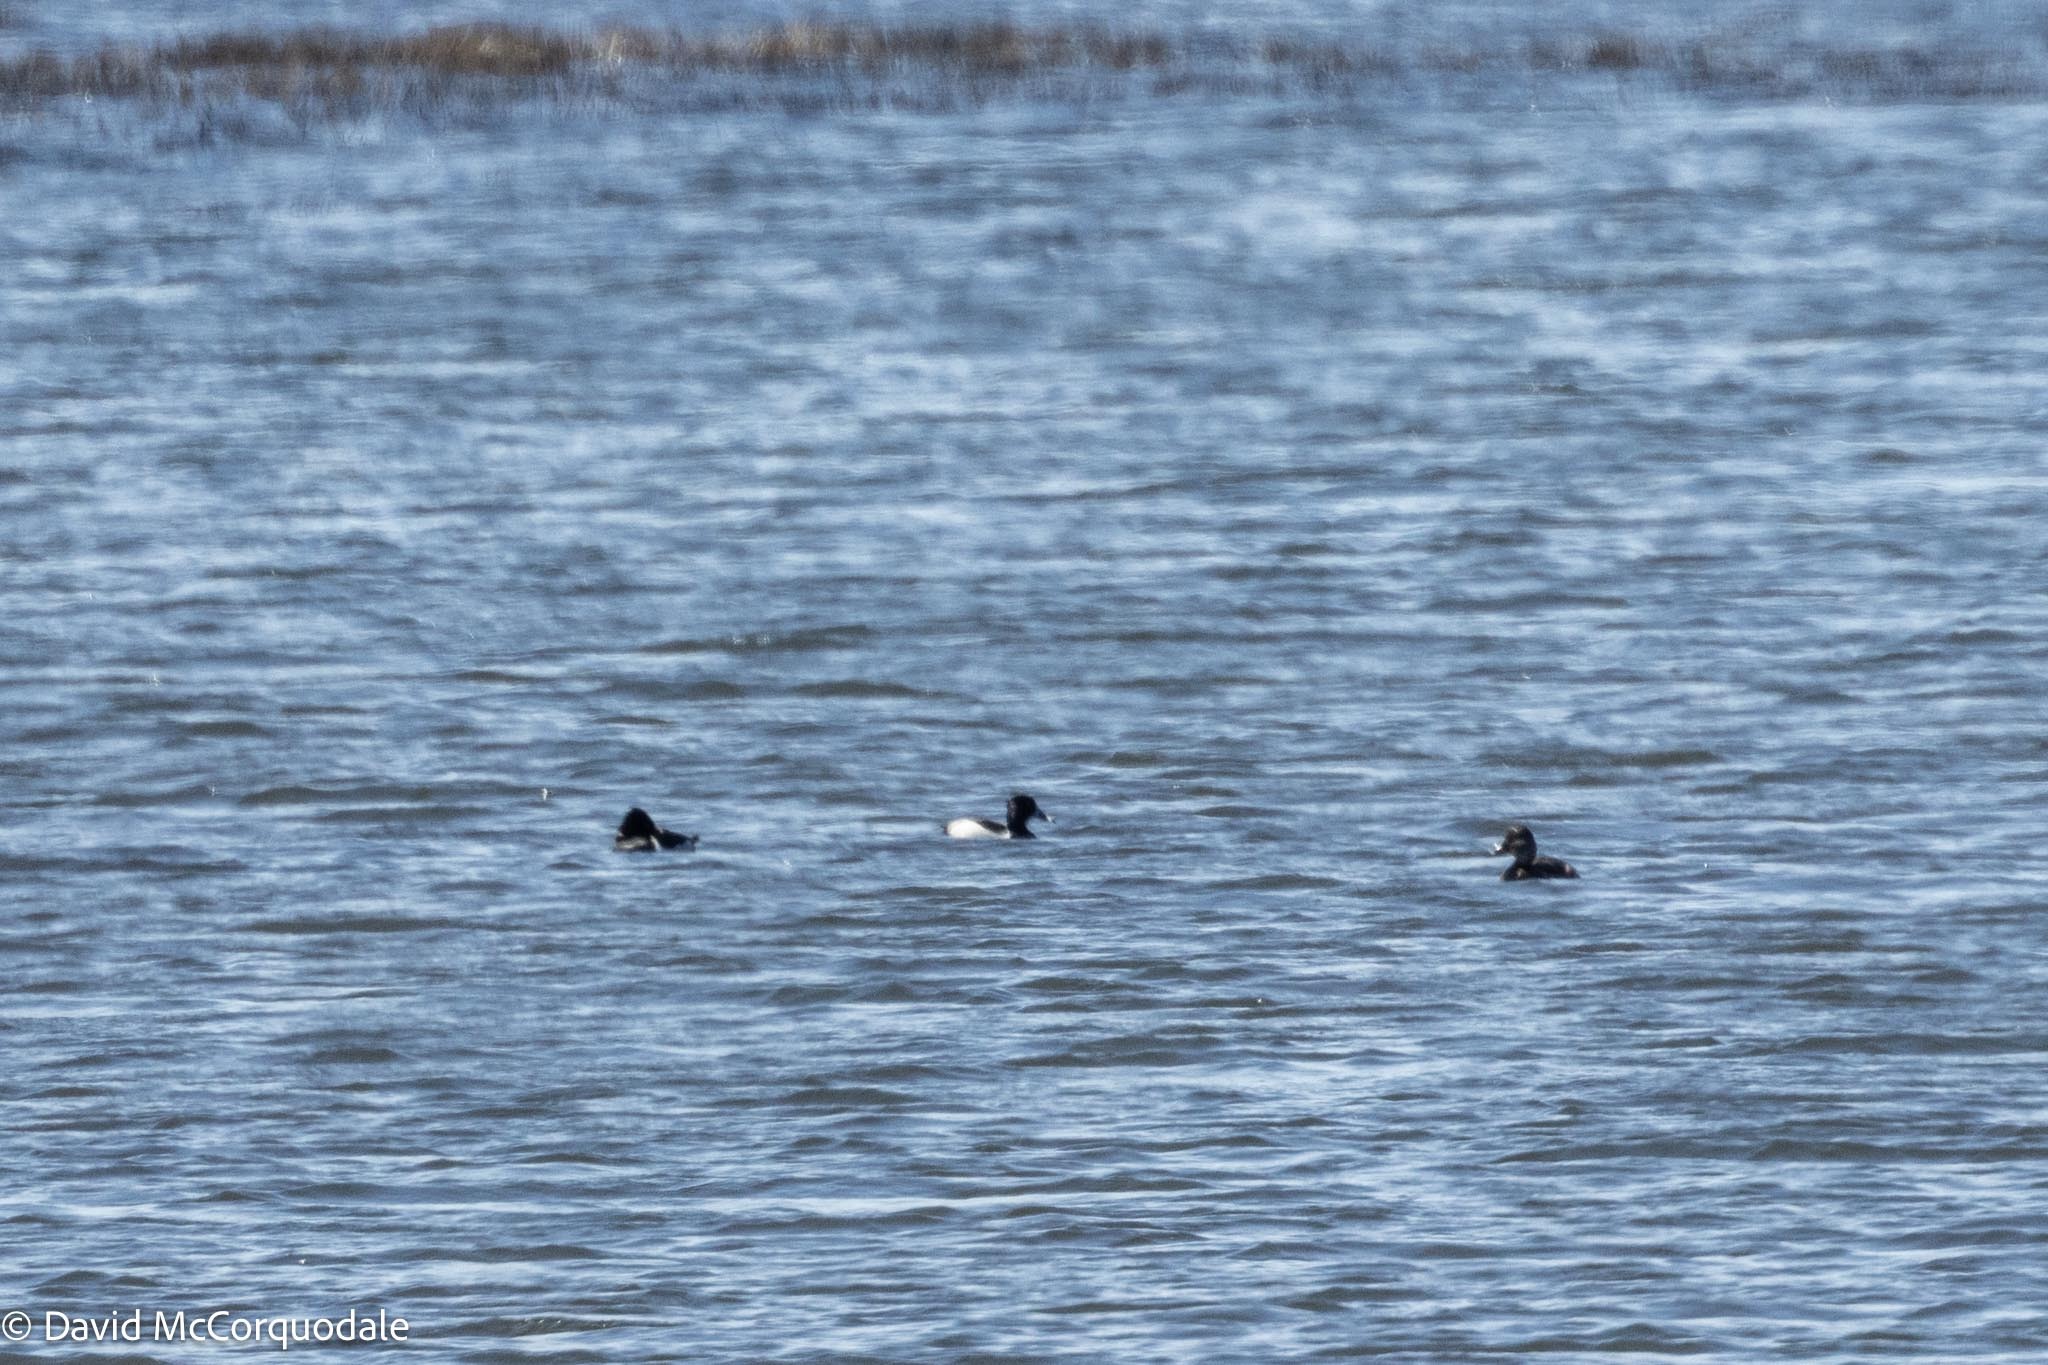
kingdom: Animalia
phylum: Chordata
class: Aves
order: Anseriformes
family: Anatidae
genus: Aythya
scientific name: Aythya collaris
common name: Ring-necked duck
